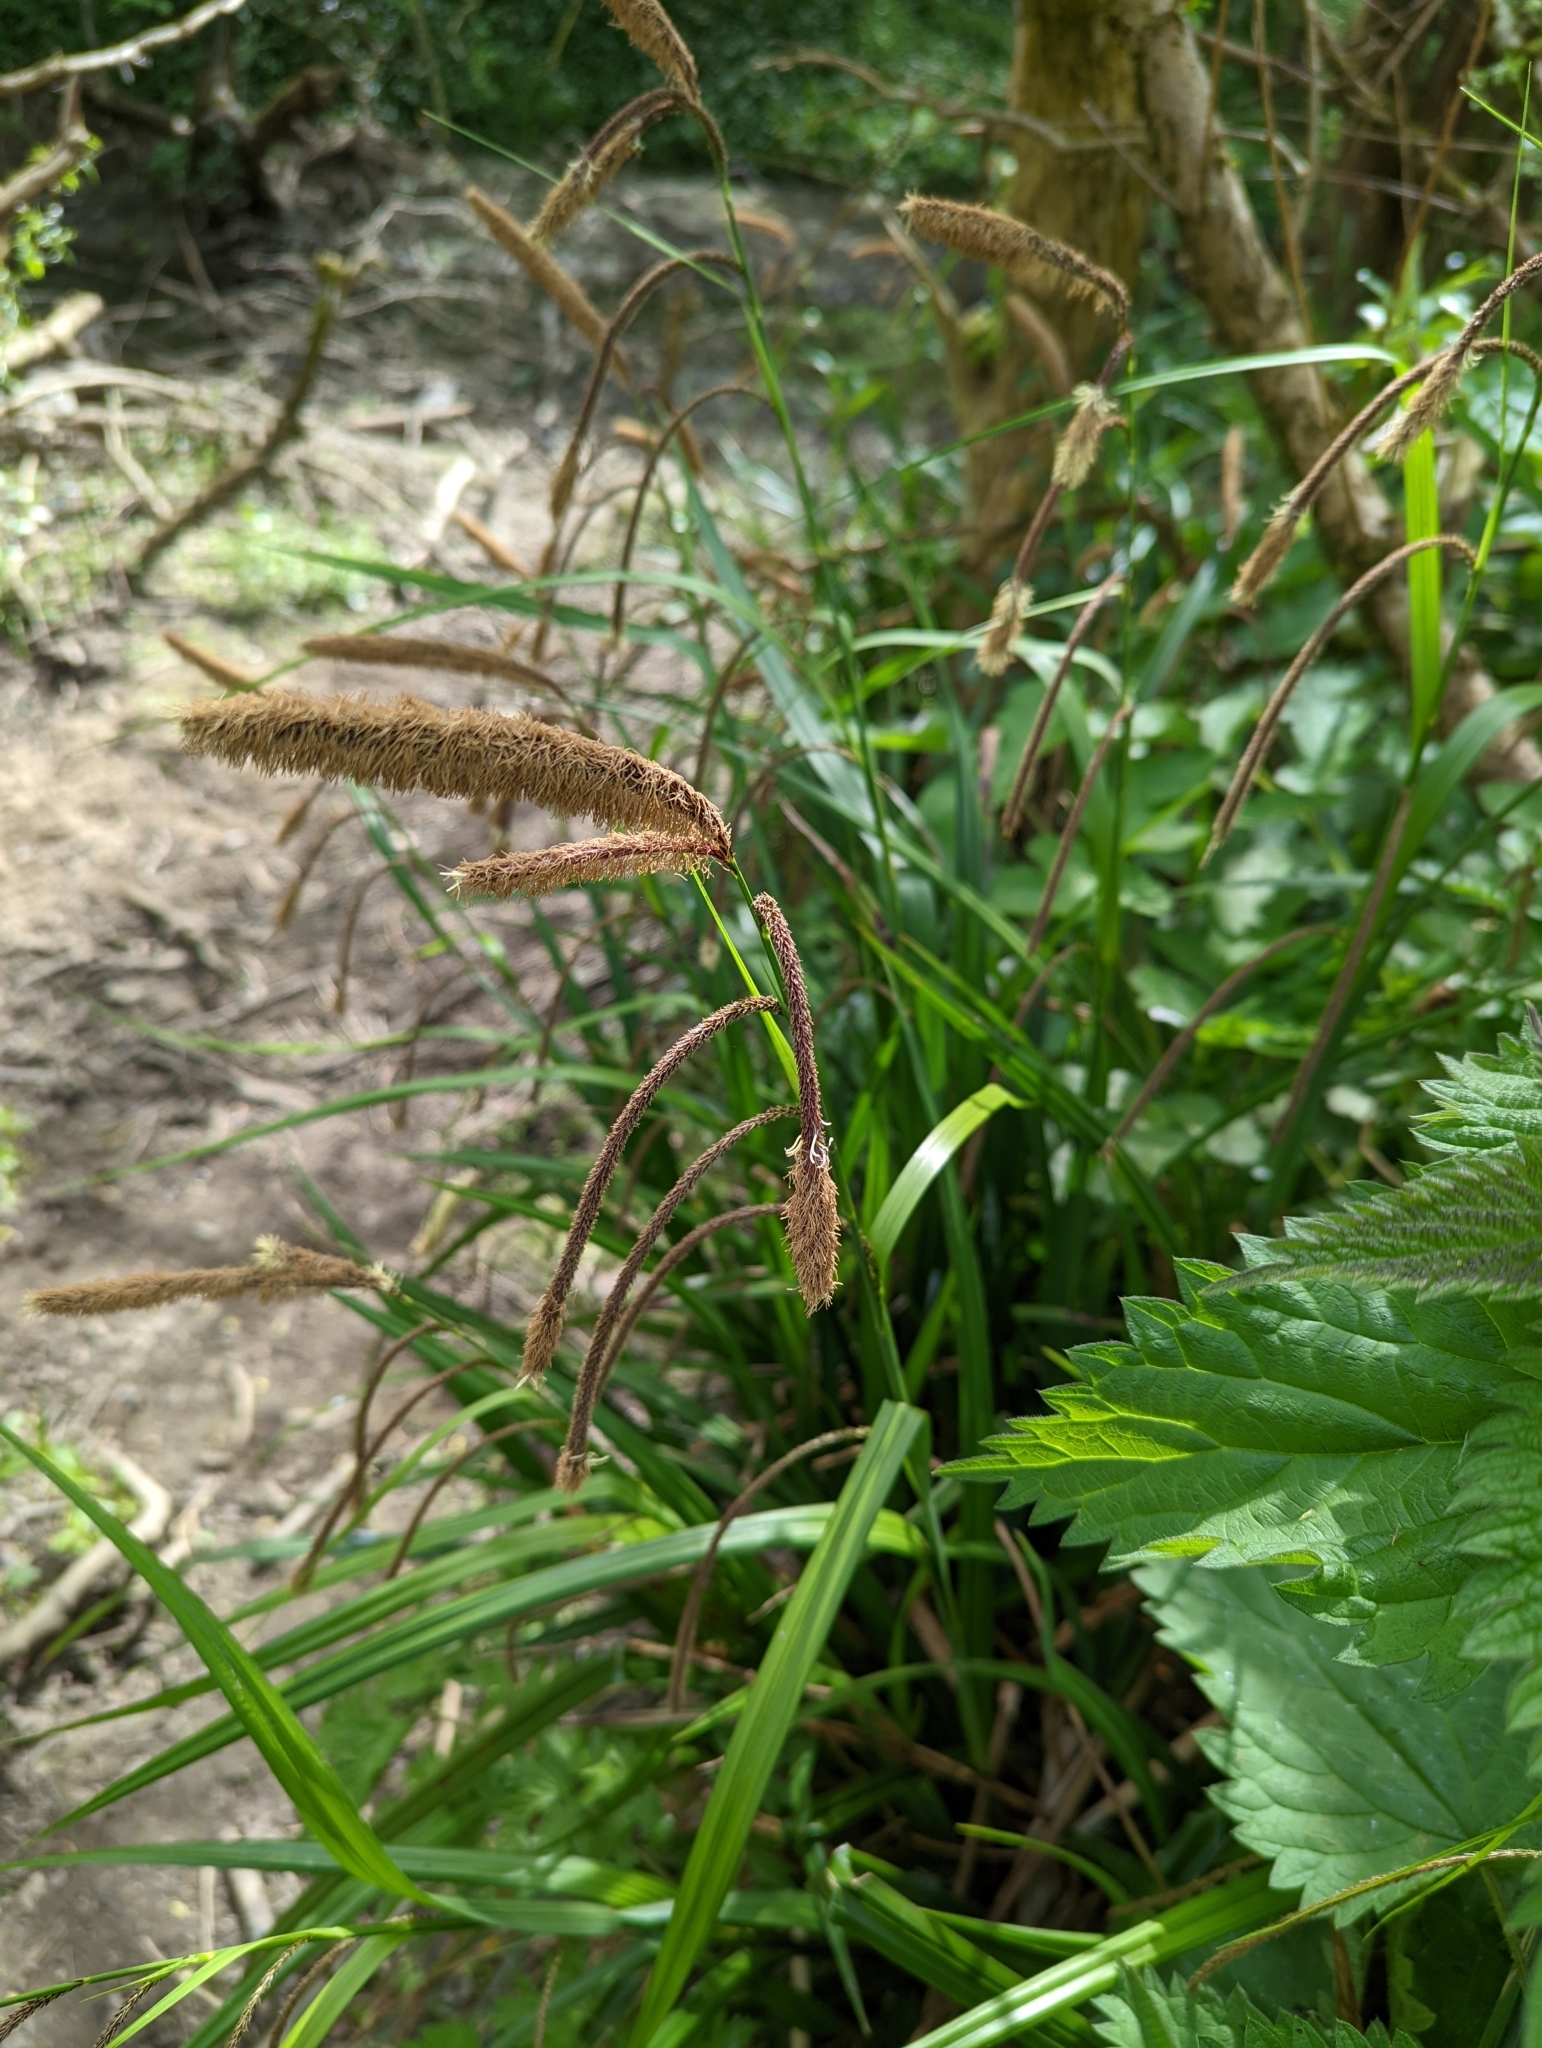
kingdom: Plantae
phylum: Tracheophyta
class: Liliopsida
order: Poales
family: Cyperaceae
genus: Carex
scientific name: Carex pendula
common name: Pendulous sedge
